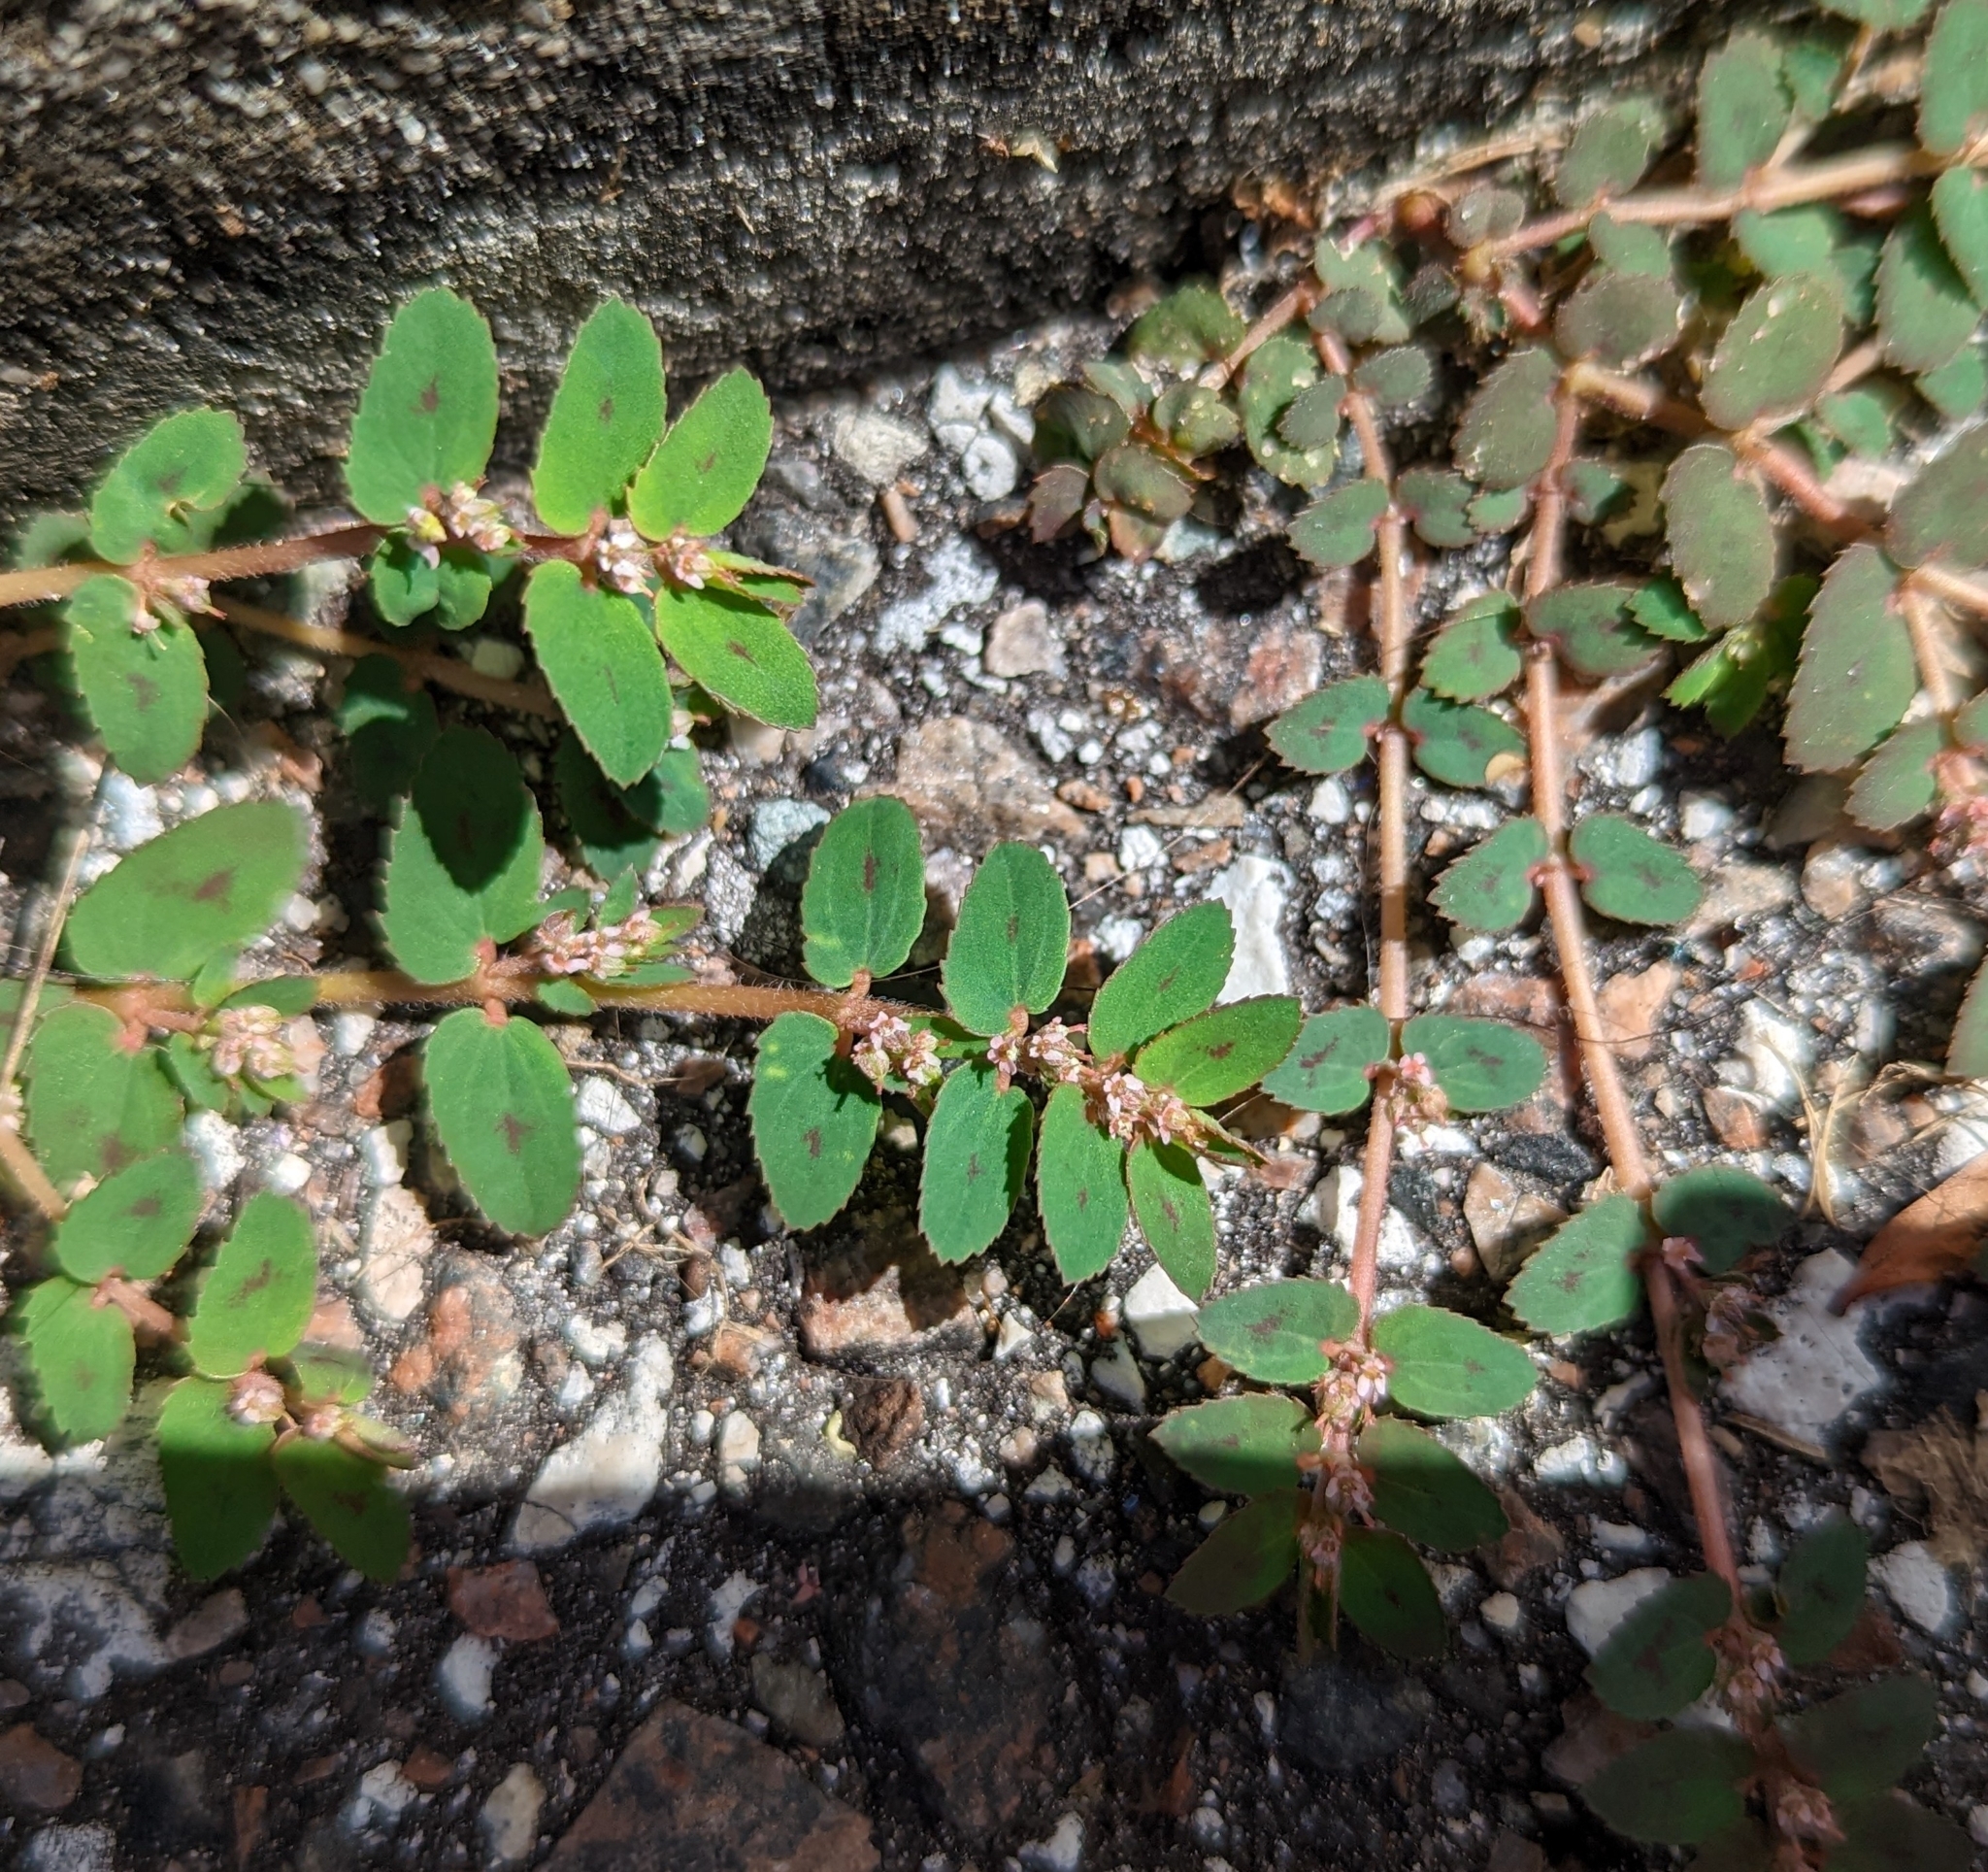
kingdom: Plantae
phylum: Tracheophyta
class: Magnoliopsida
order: Malpighiales
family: Euphorbiaceae
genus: Euphorbia
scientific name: Euphorbia thymifolia
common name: Gulf sandmat
